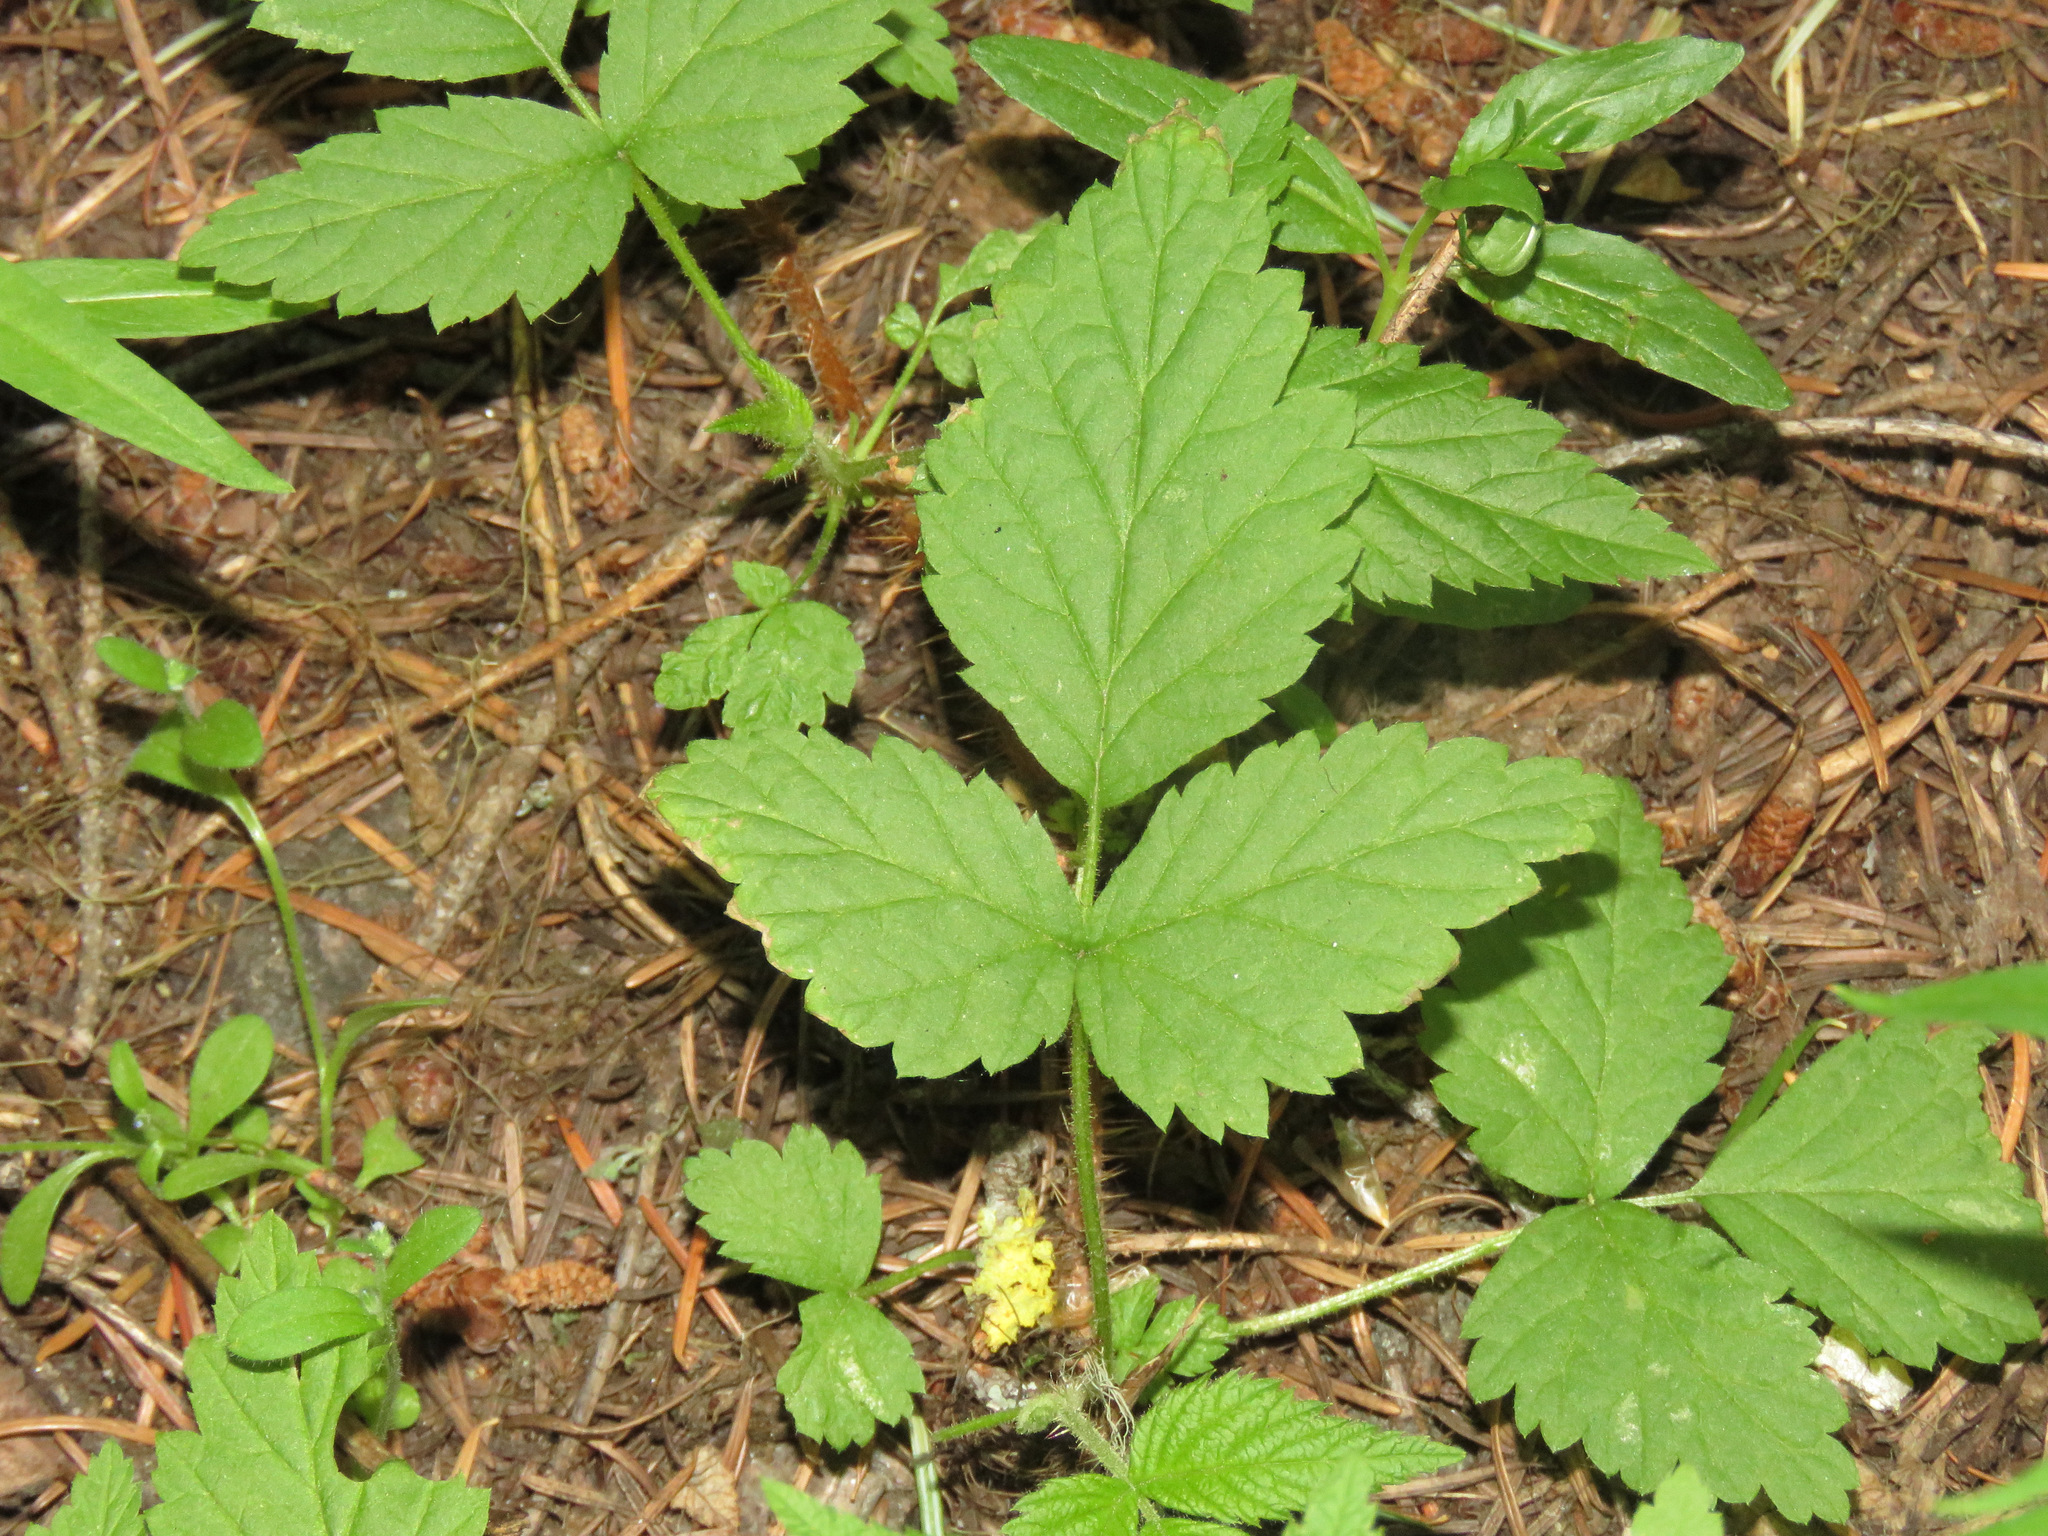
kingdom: Plantae
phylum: Tracheophyta
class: Magnoliopsida
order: Rosales
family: Rosaceae
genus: Rubus
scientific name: Rubus pubescens
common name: Dwarf raspberry
